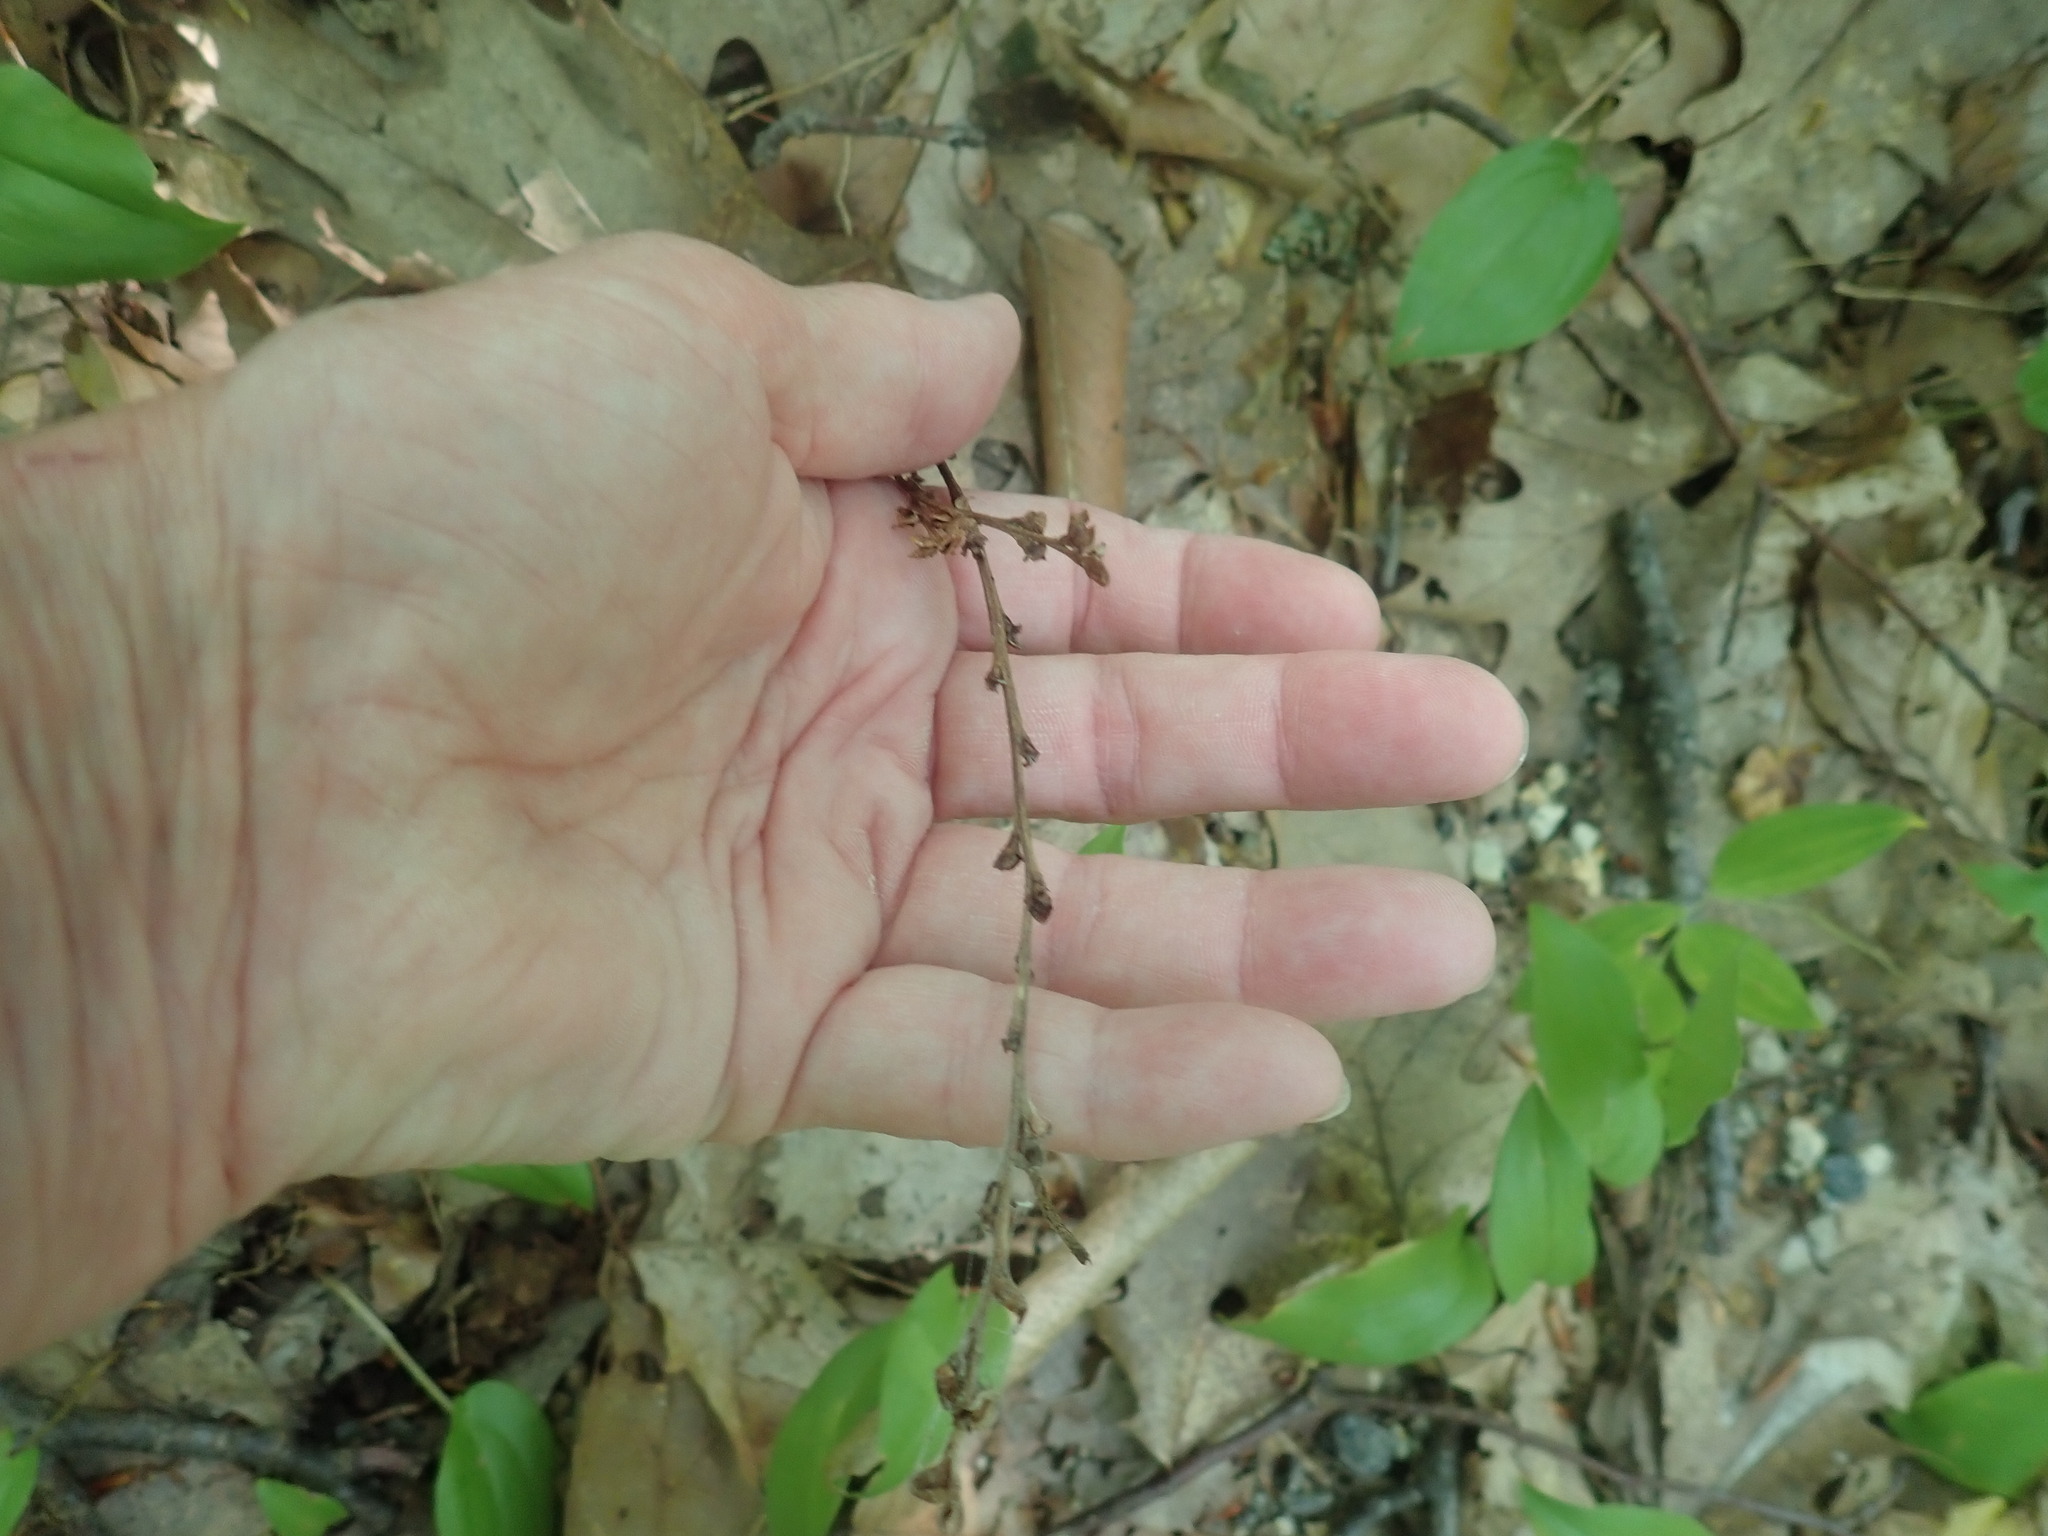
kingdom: Plantae
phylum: Tracheophyta
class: Magnoliopsida
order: Lamiales
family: Orobanchaceae
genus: Epifagus
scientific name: Epifagus virginiana
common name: Beechdrops
